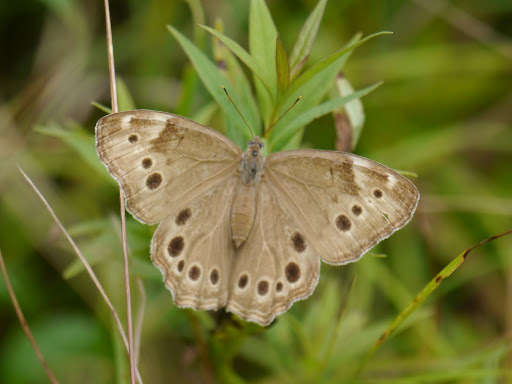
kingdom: Animalia
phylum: Arthropoda
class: Insecta
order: Lepidoptera
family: Nymphalidae
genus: Lethe
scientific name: Lethe anthedon
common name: Northern pearly-eye
